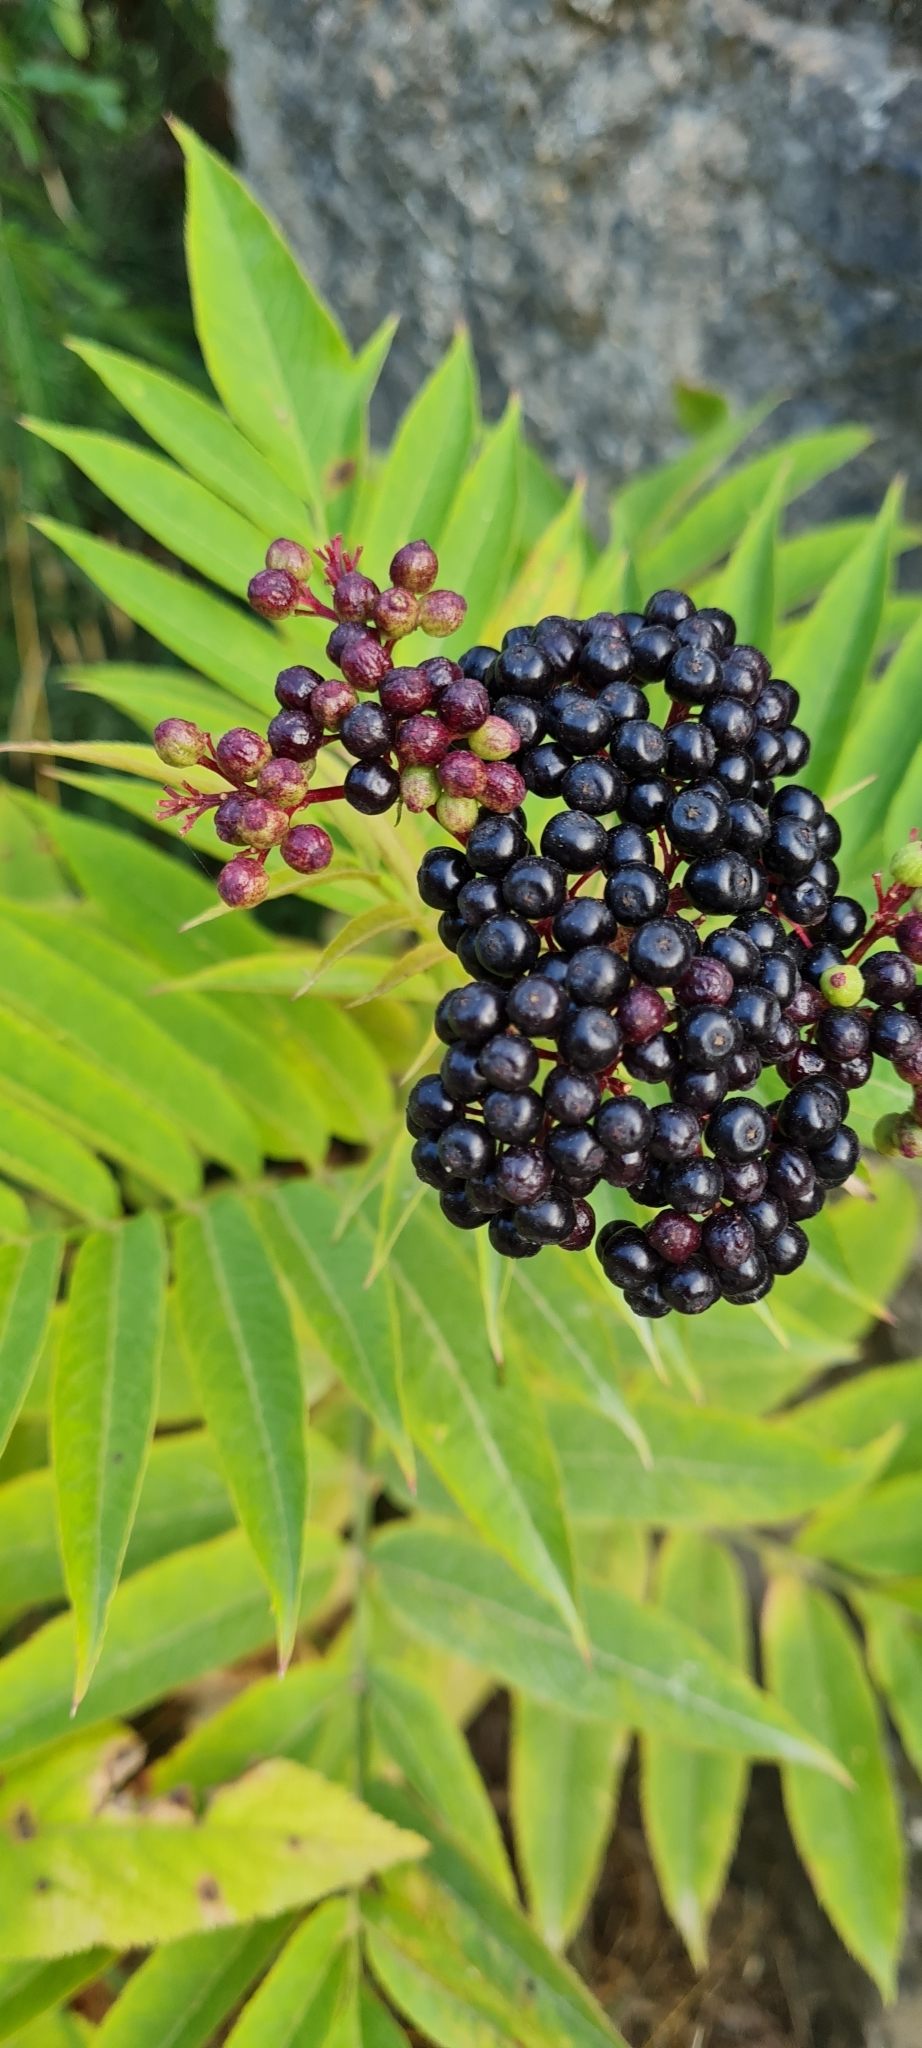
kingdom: Plantae
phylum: Tracheophyta
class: Magnoliopsida
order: Dipsacales
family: Viburnaceae
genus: Sambucus
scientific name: Sambucus ebulus
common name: Dwarf elder
